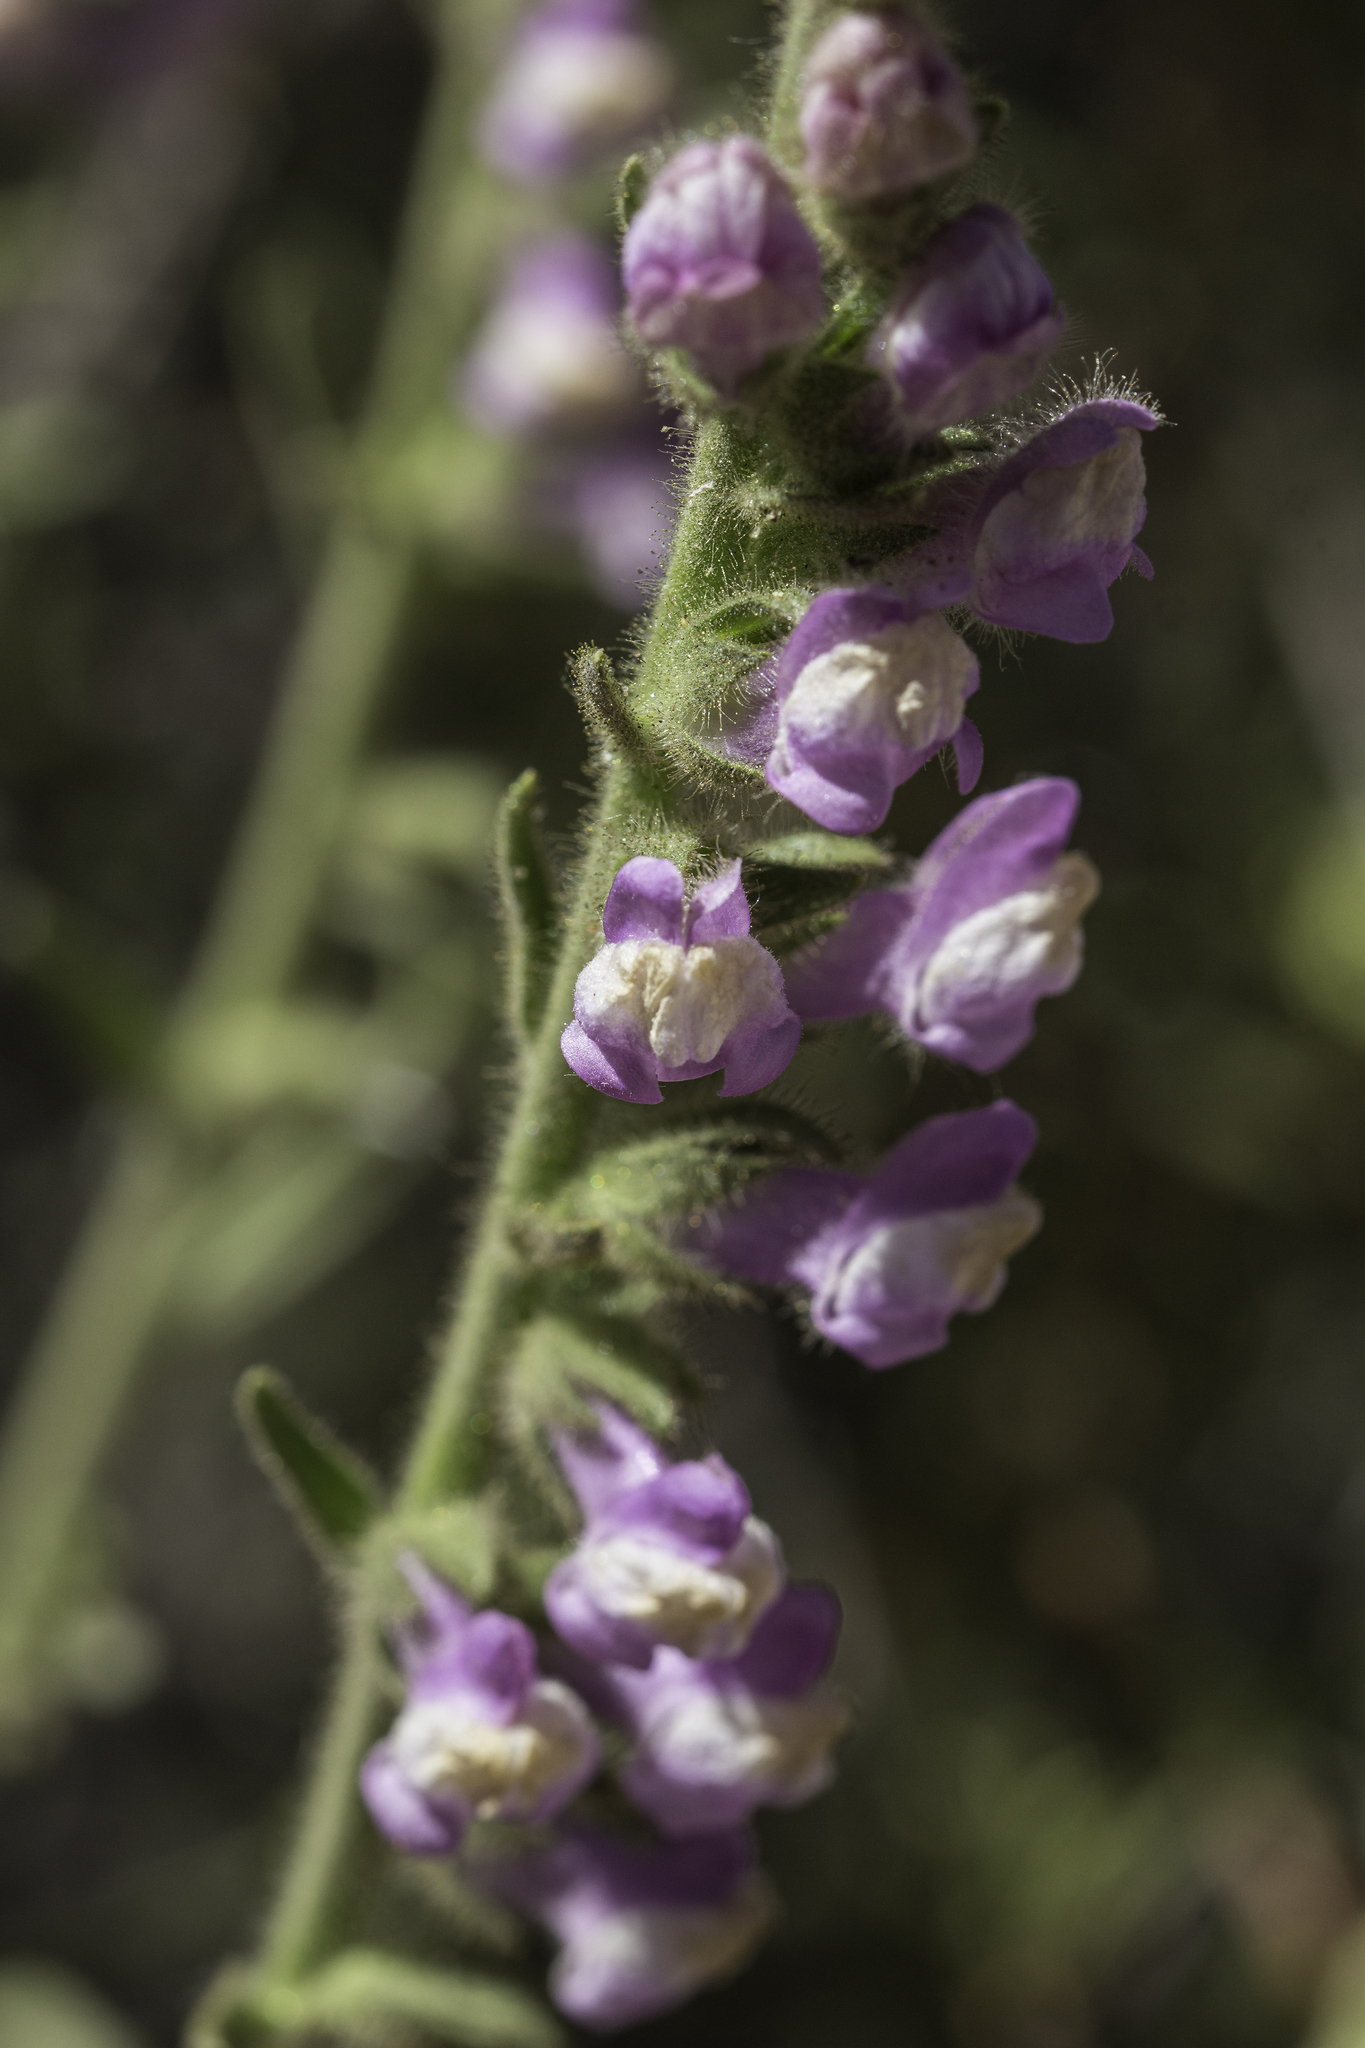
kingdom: Plantae
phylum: Tracheophyta
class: Magnoliopsida
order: Lamiales
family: Plantaginaceae
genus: Sairocarpus
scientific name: Sairocarpus multiflorus
